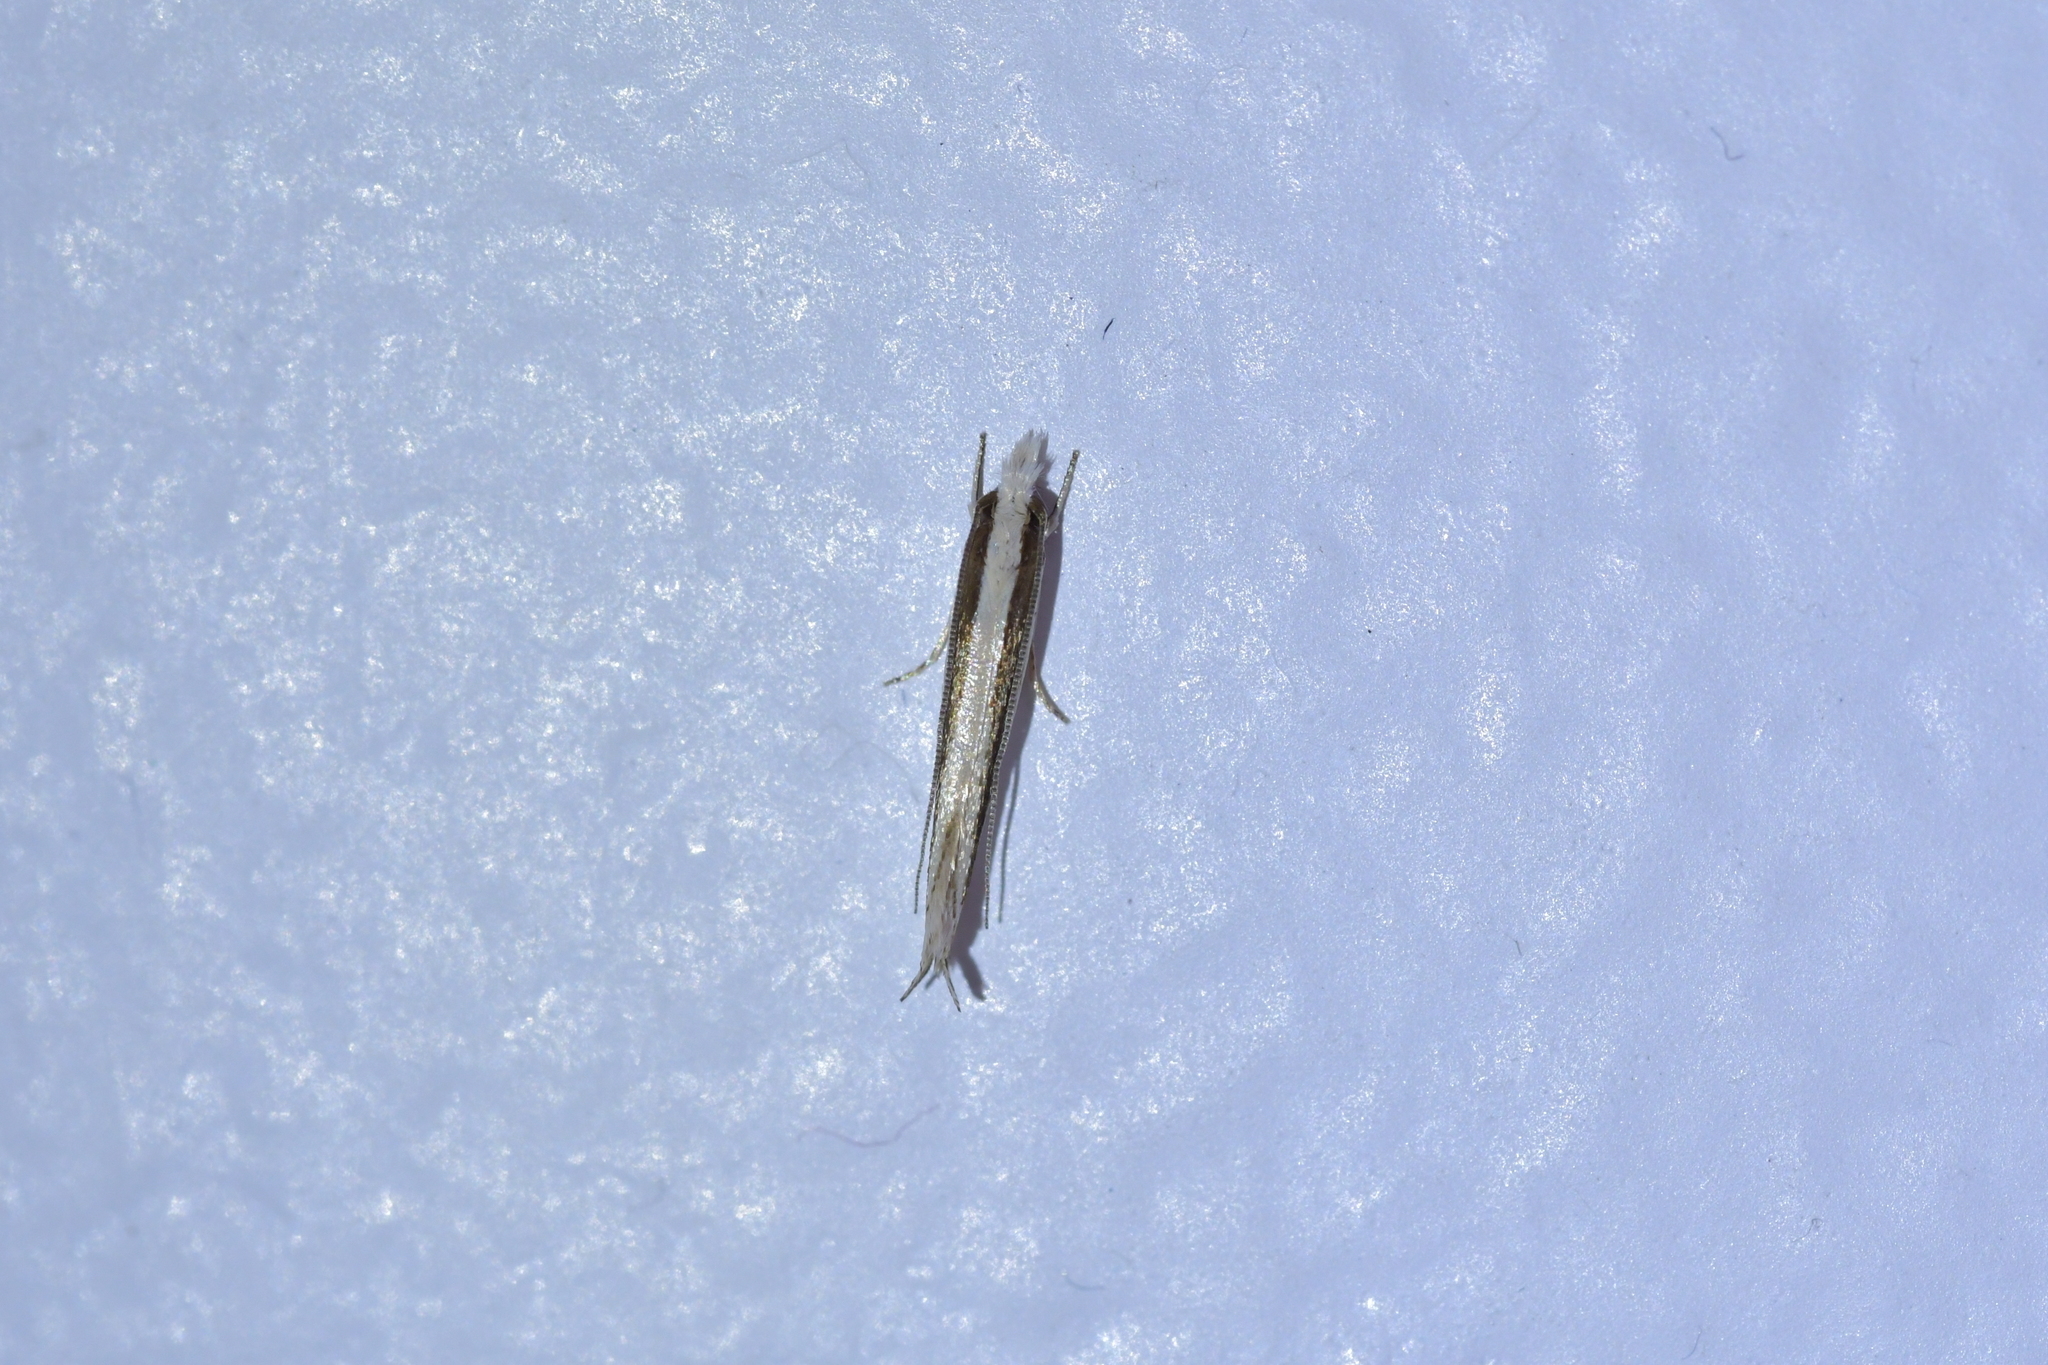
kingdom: Animalia
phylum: Arthropoda
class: Insecta
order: Lepidoptera
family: Tineidae
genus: Erechthias
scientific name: Erechthias stilbella
